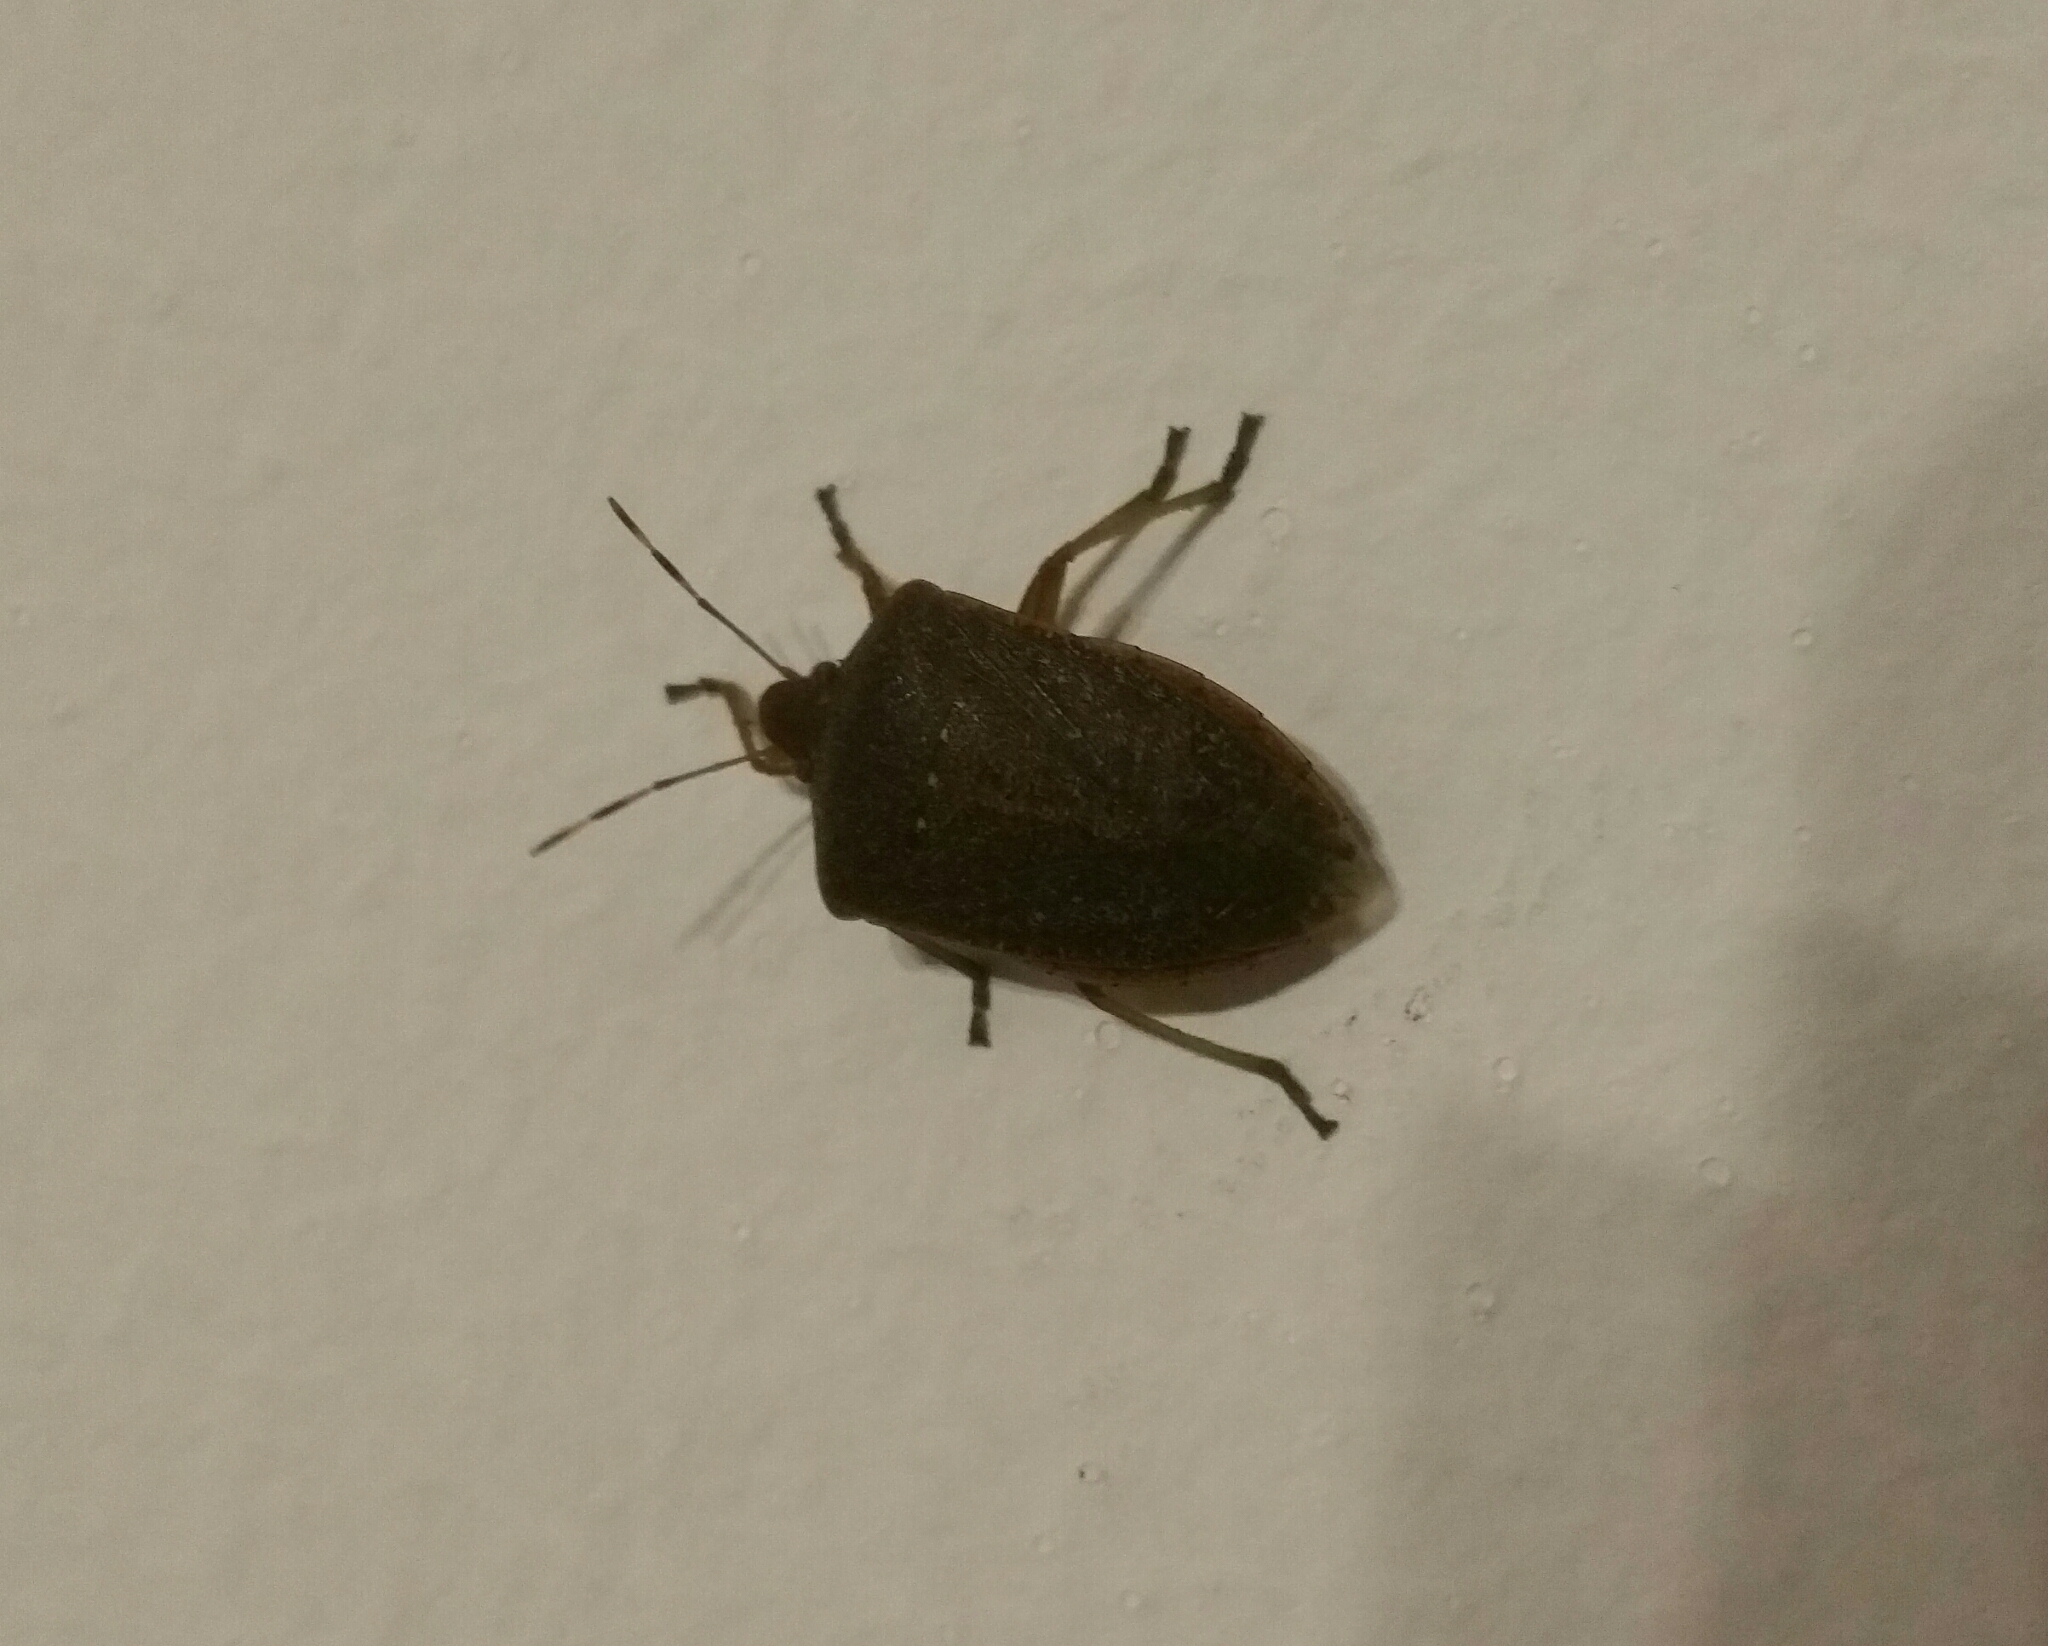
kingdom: Animalia
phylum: Arthropoda
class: Insecta
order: Hemiptera
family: Pentatomidae
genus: Nezara
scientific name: Nezara viridula
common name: Southern green stink bug
